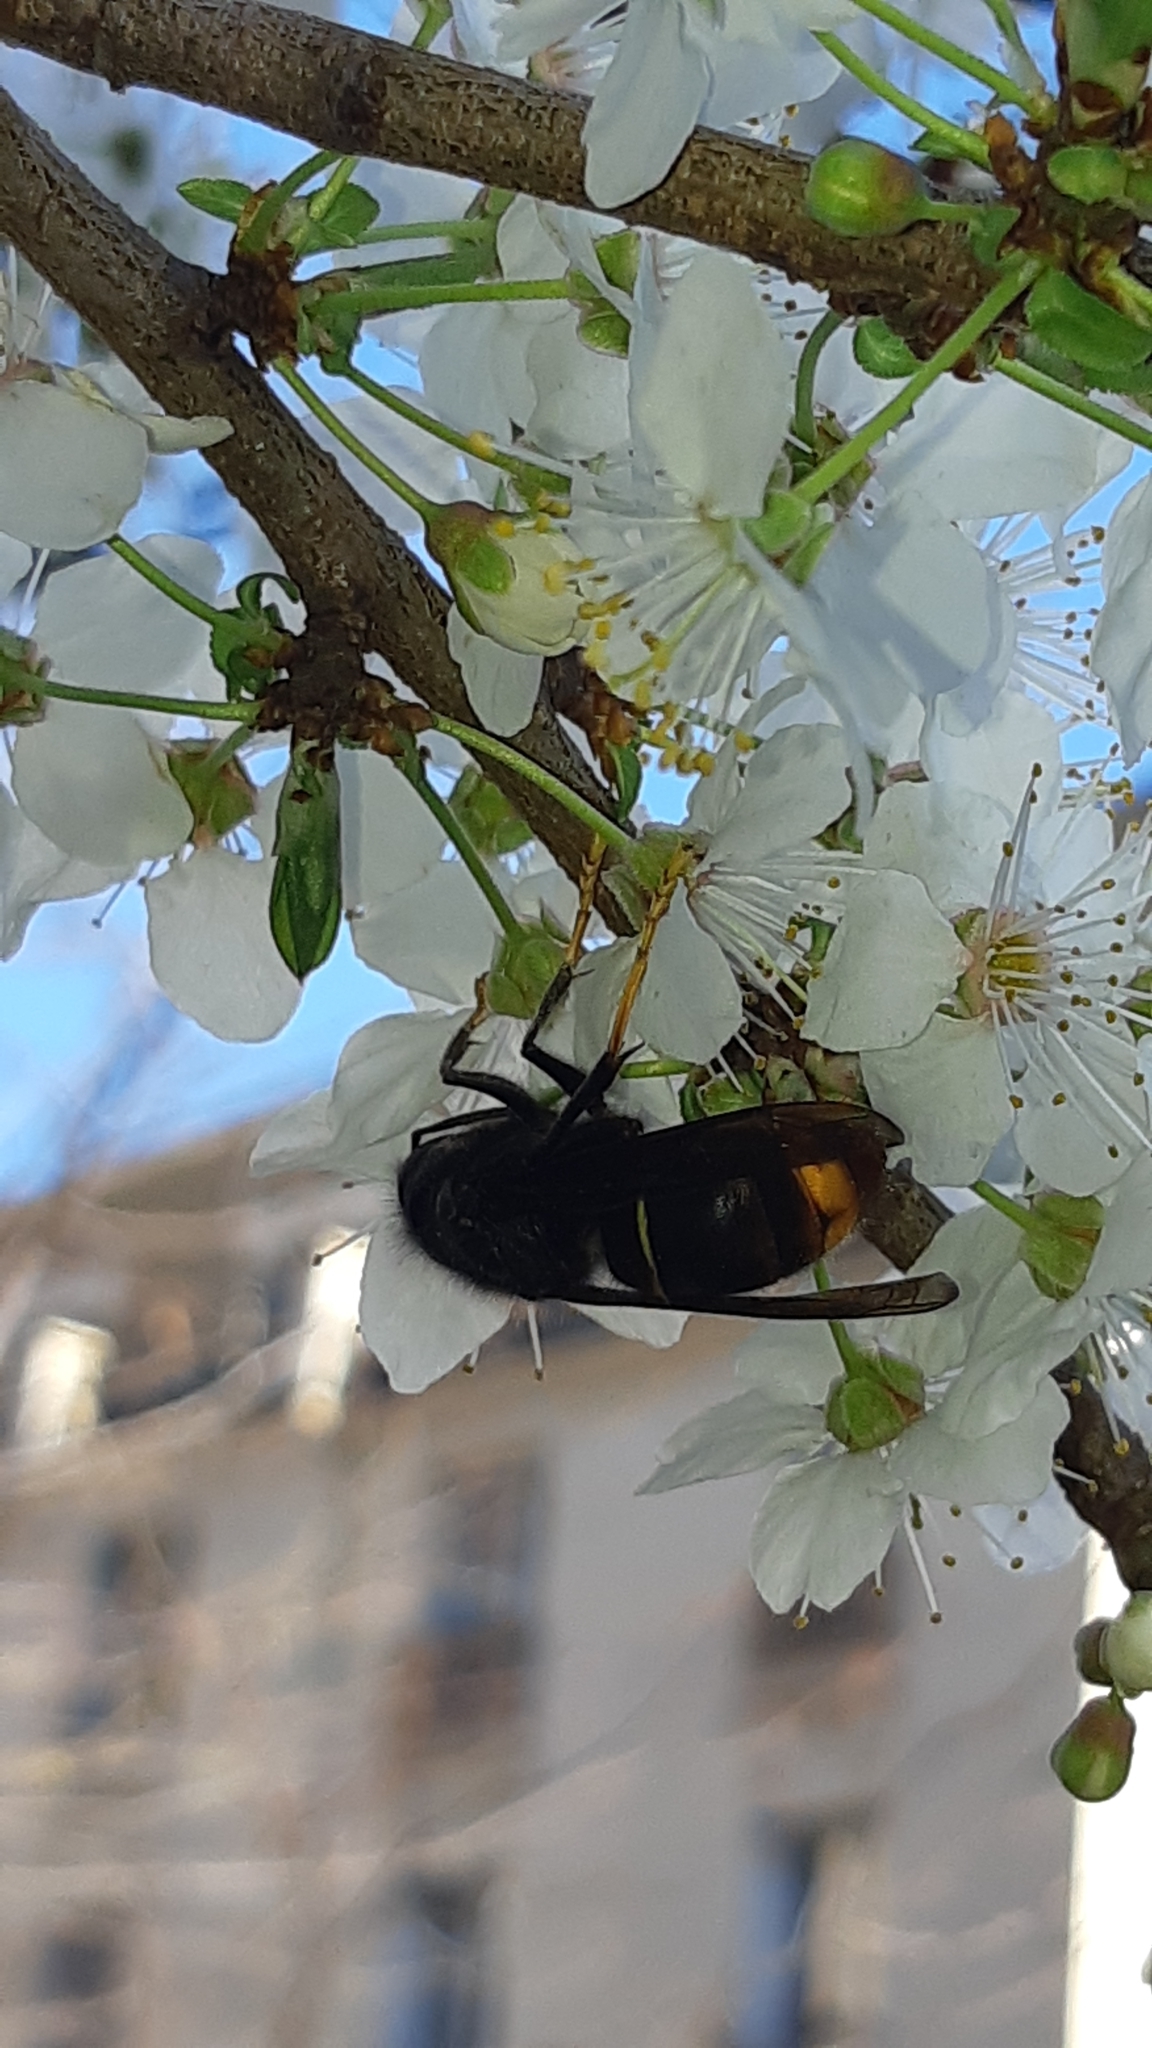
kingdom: Animalia
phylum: Arthropoda
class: Insecta
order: Hymenoptera
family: Vespidae
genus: Vespa
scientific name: Vespa velutina
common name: Asian hornet
